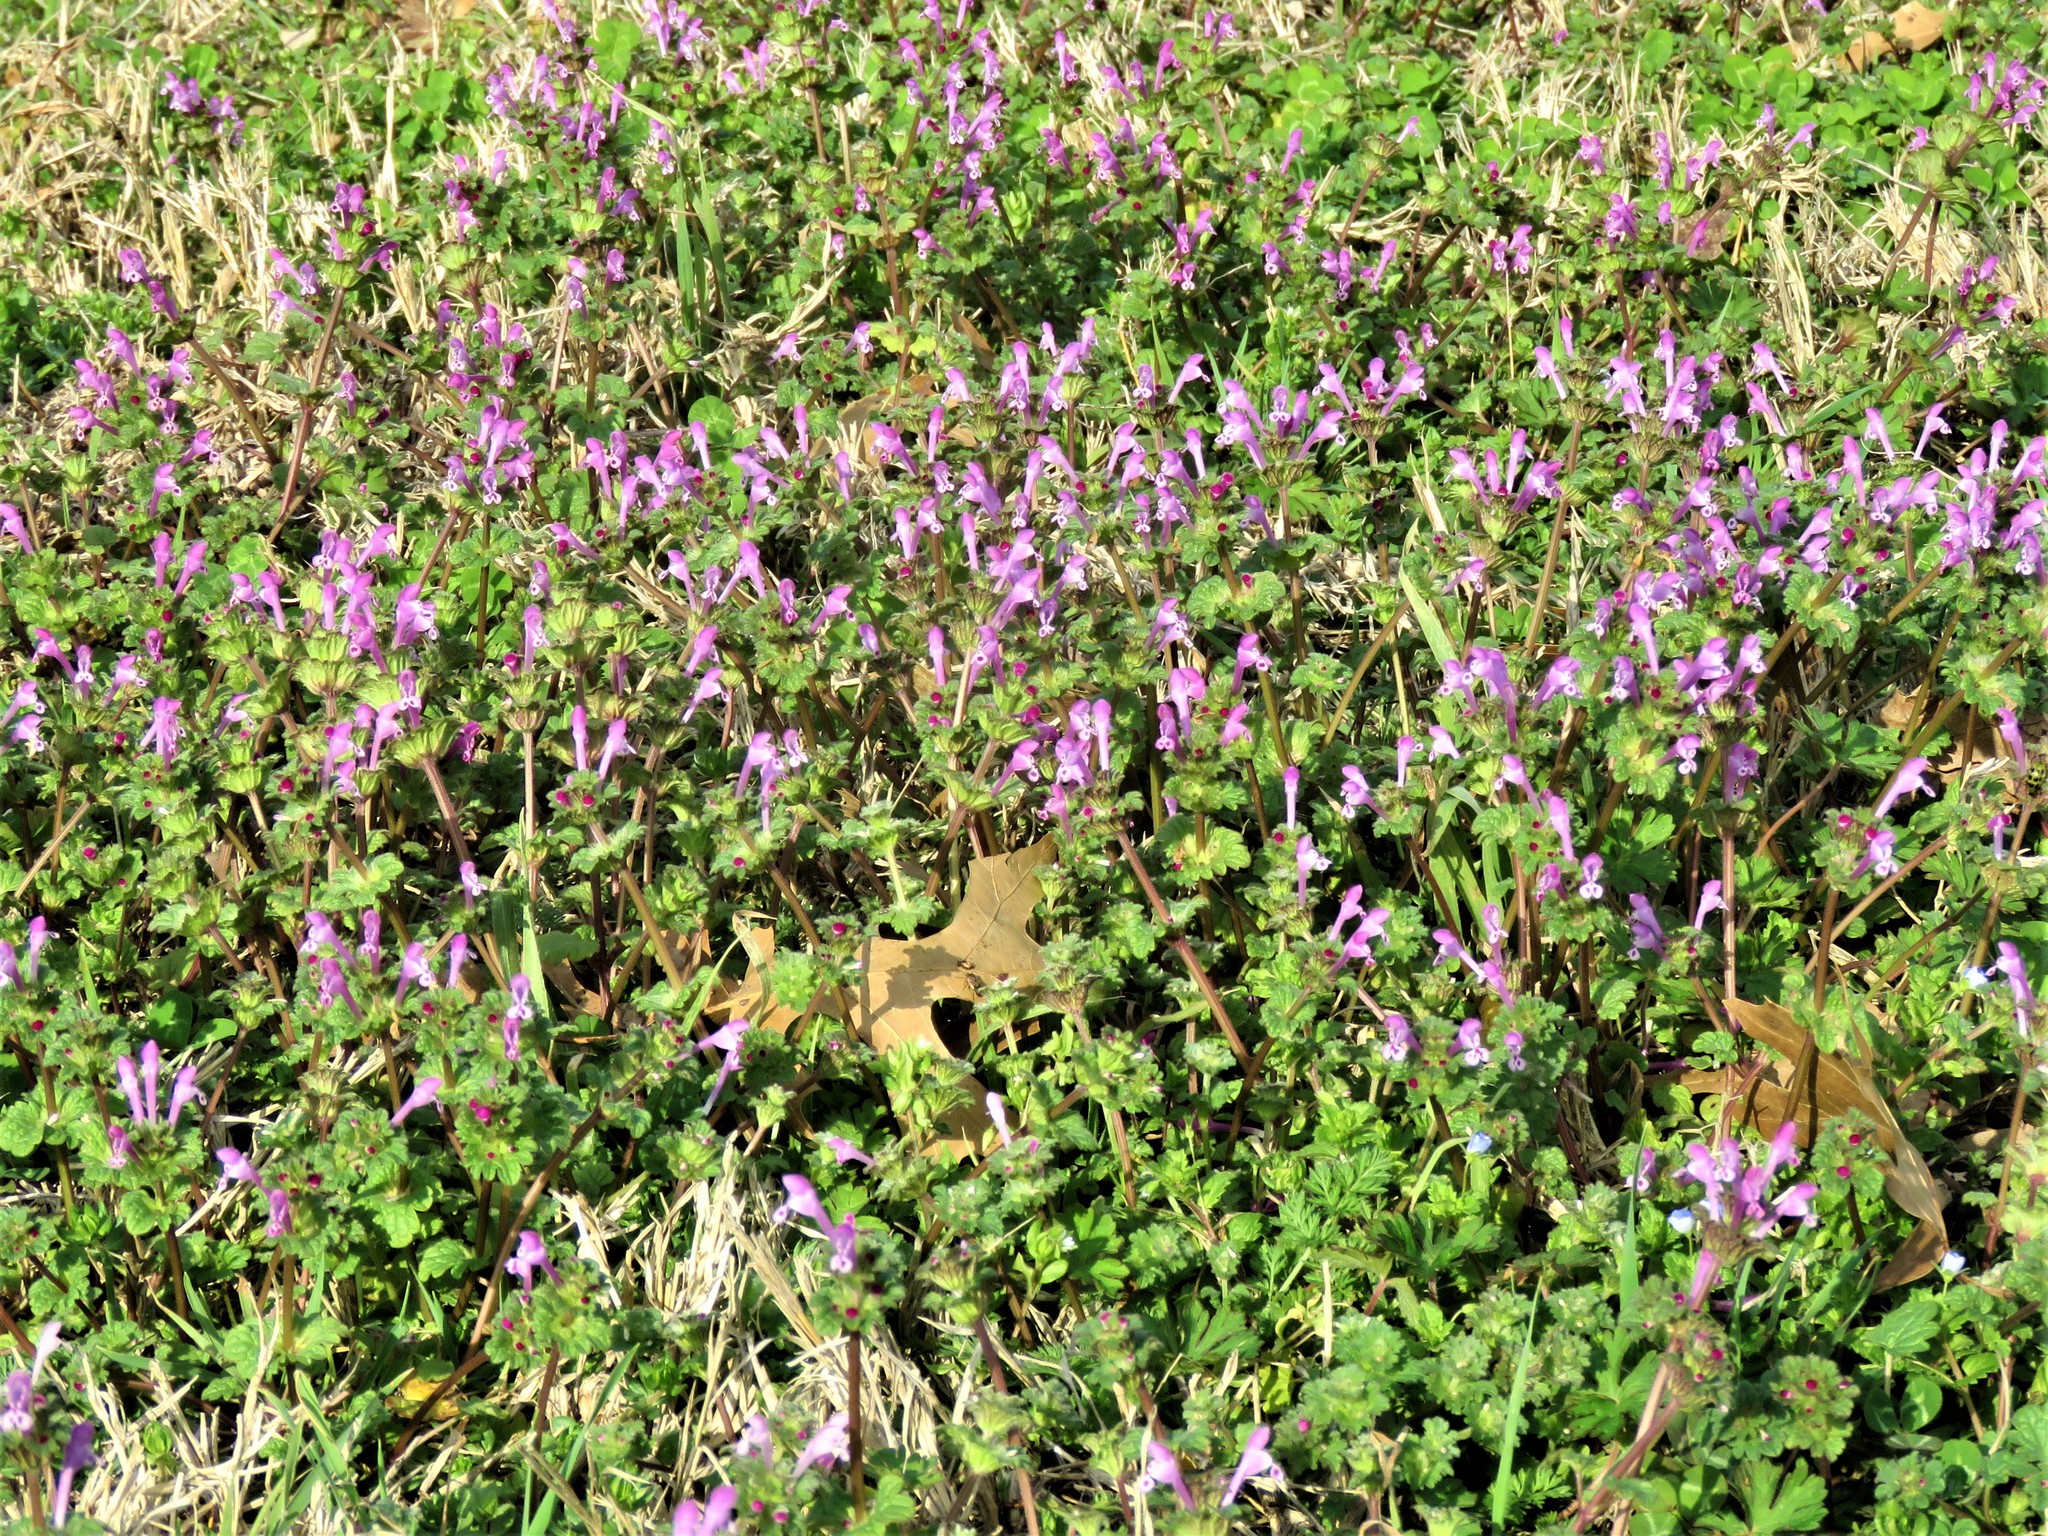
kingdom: Plantae
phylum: Tracheophyta
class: Magnoliopsida
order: Lamiales
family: Lamiaceae
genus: Lamium
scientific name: Lamium amplexicaule
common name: Henbit dead-nettle
